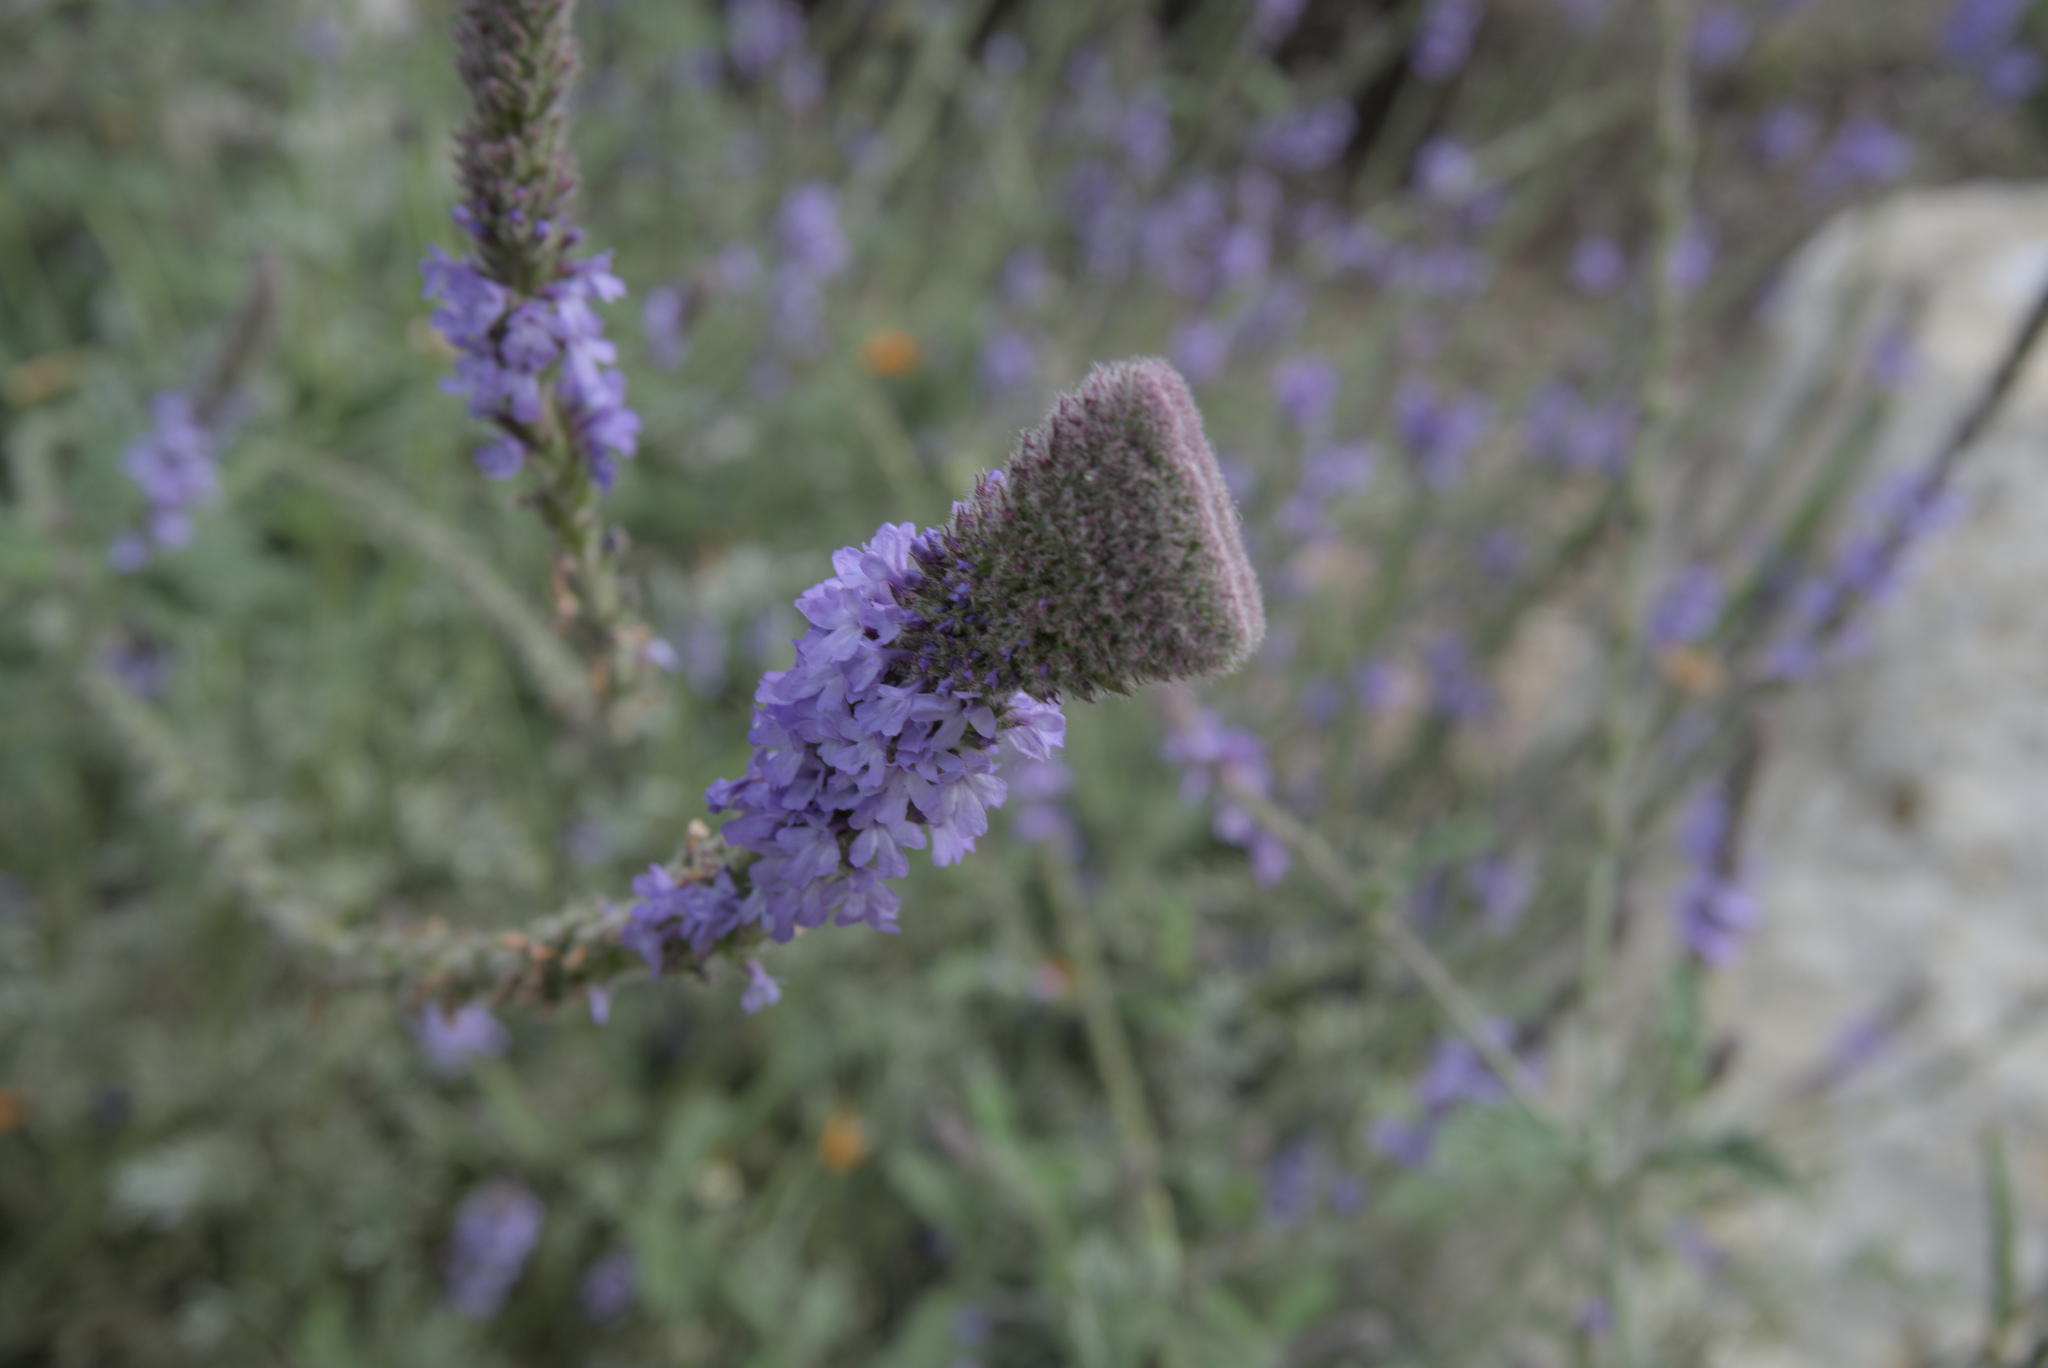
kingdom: Plantae
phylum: Tracheophyta
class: Magnoliopsida
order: Lamiales
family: Verbenaceae
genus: Verbena
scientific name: Verbena lasiostachys
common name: Vervain
